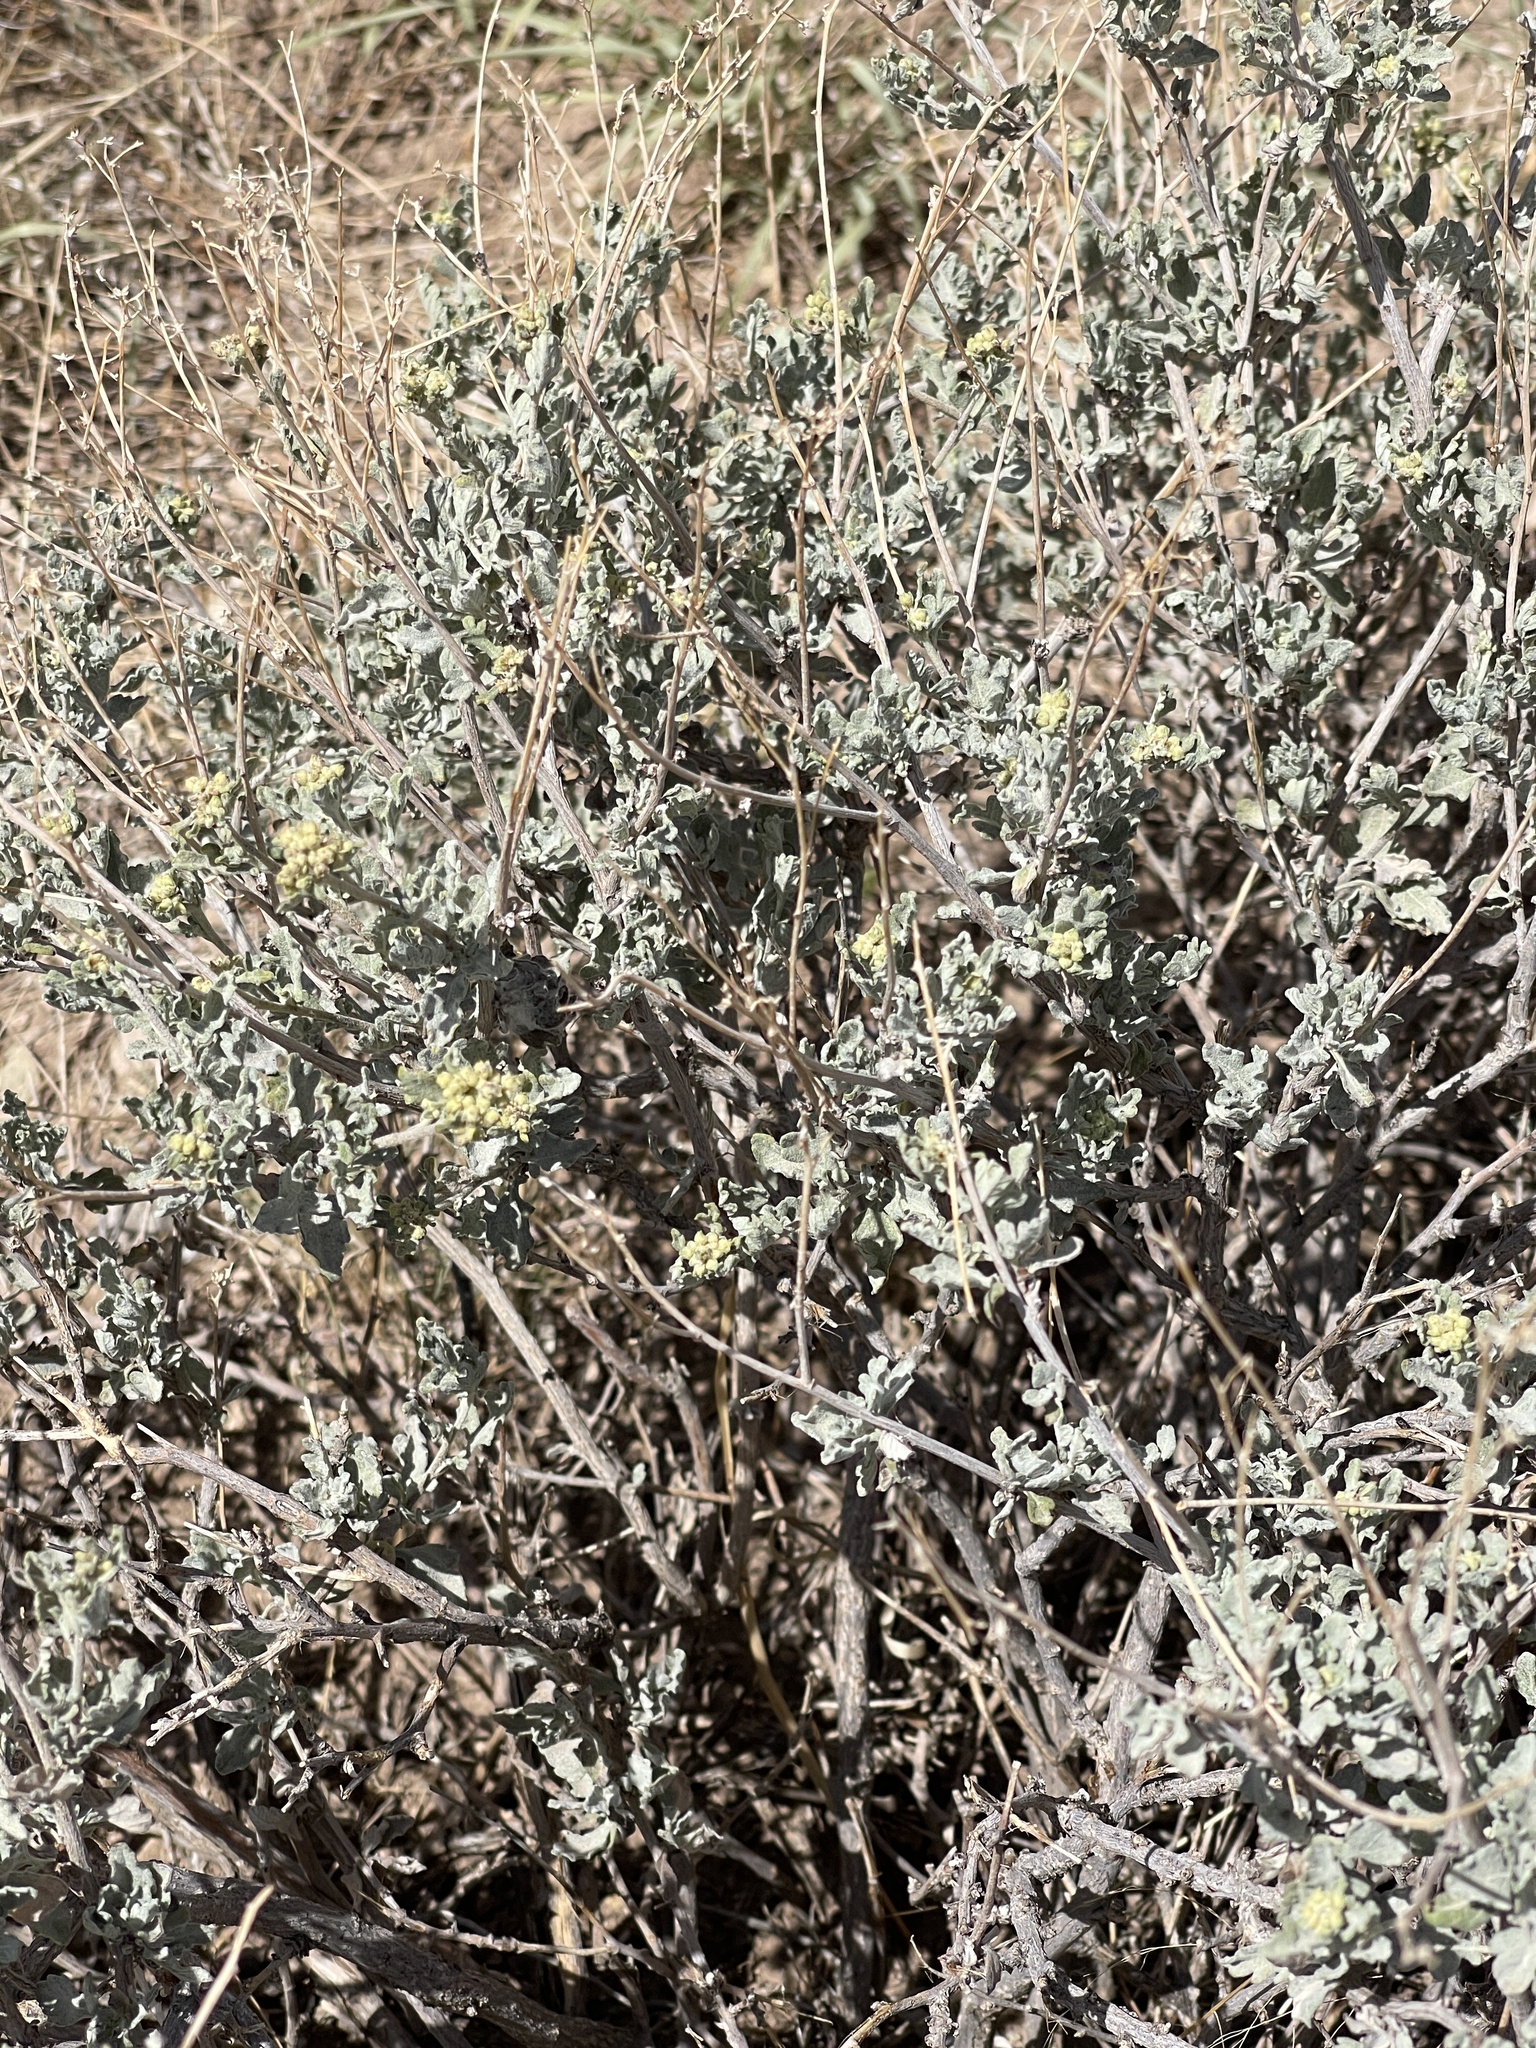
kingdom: Plantae
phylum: Tracheophyta
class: Magnoliopsida
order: Asterales
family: Asteraceae
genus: Parthenium
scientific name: Parthenium incanum
